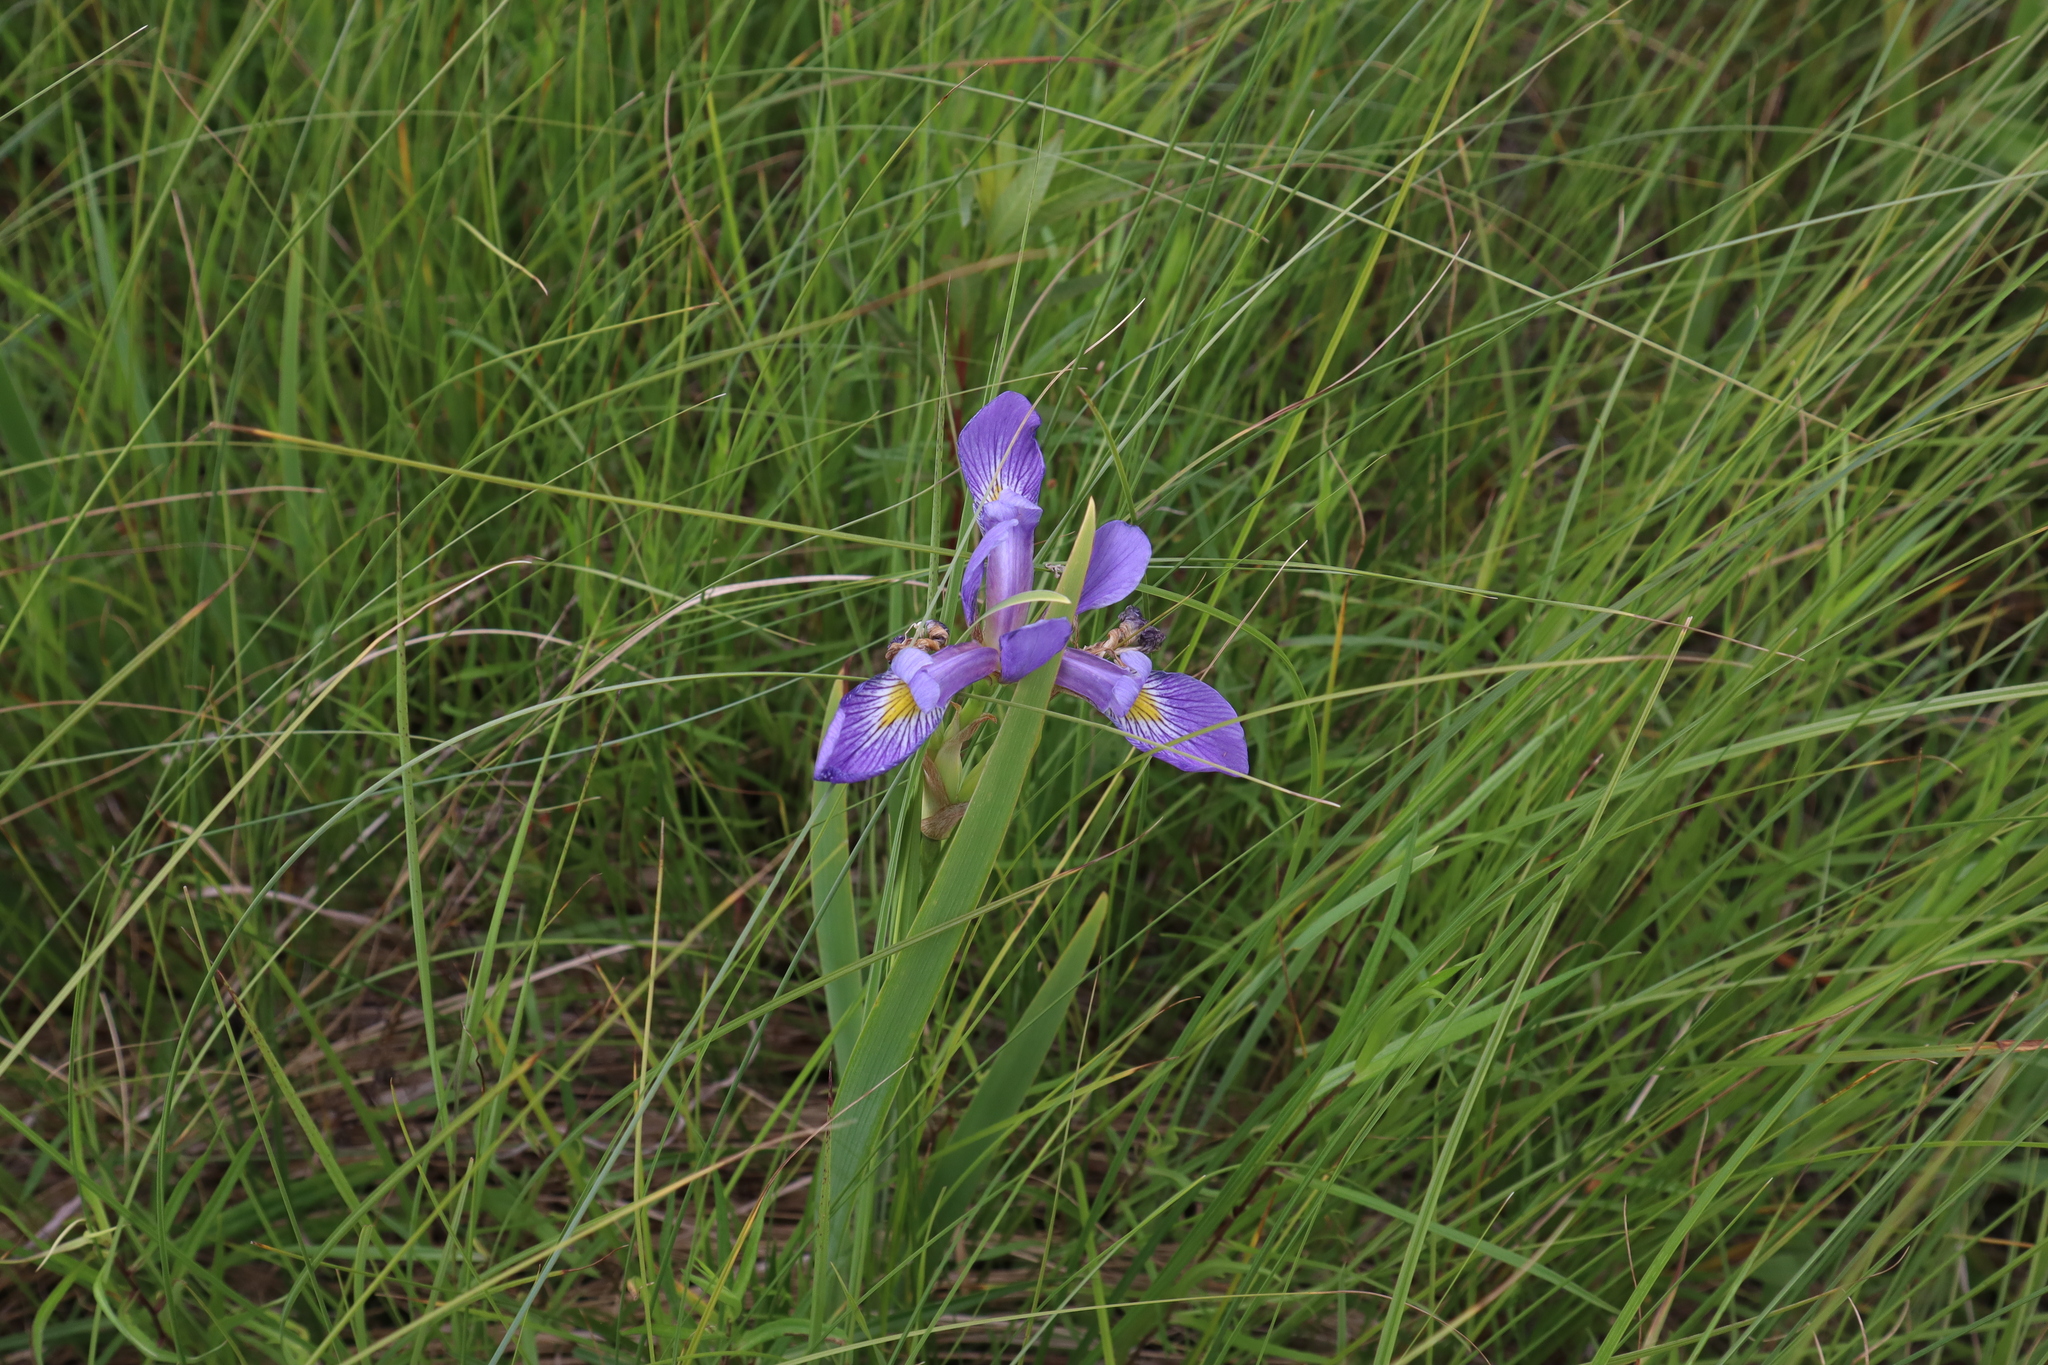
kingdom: Plantae
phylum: Tracheophyta
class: Liliopsida
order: Asparagales
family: Iridaceae
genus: Iris
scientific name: Iris virginica
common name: Southern blue flag
